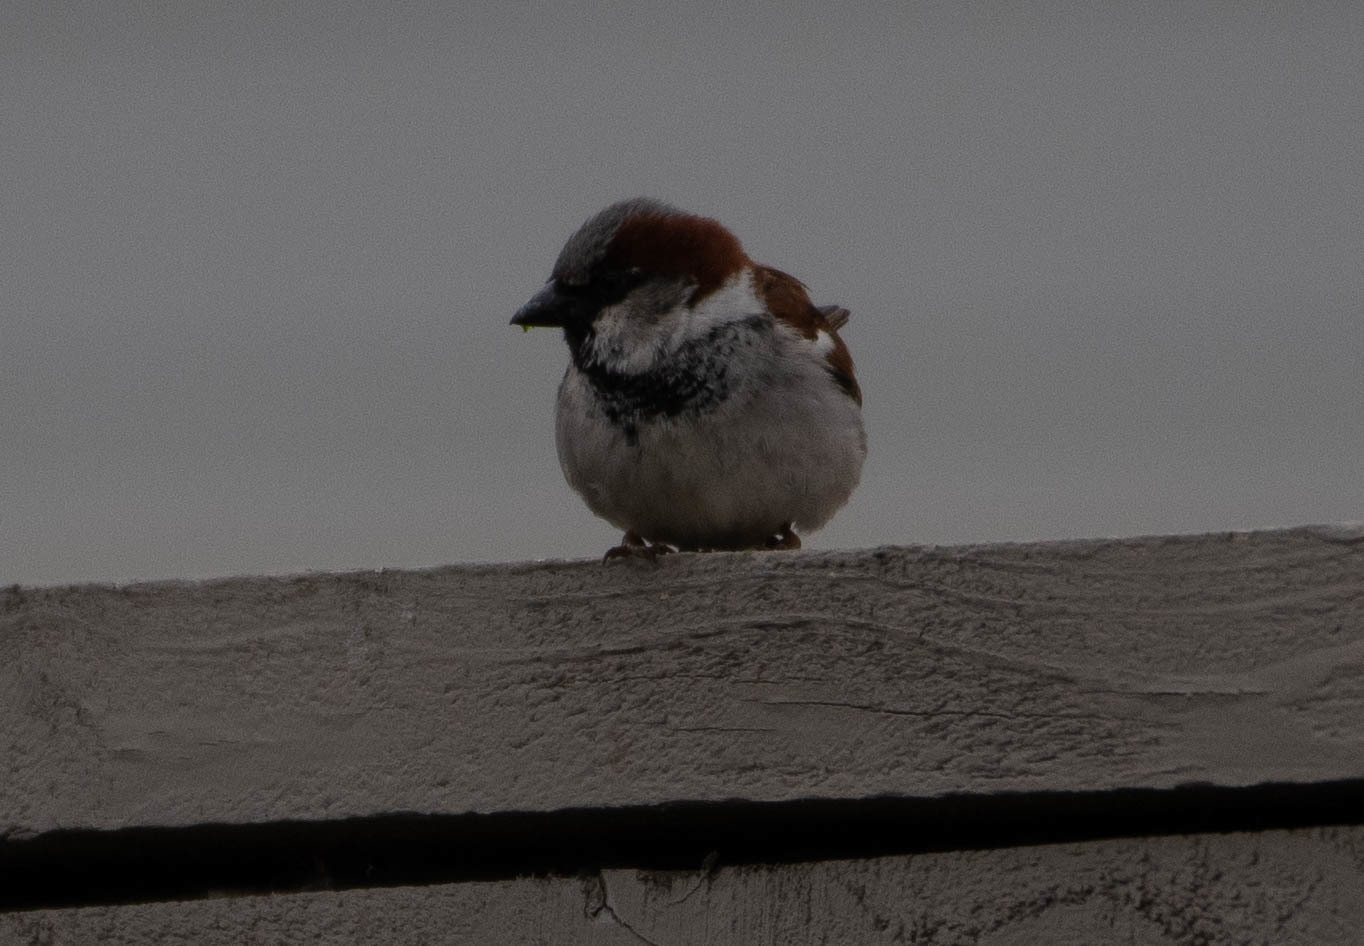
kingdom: Animalia
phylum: Chordata
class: Aves
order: Passeriformes
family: Passeridae
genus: Passer
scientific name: Passer domesticus
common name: House sparrow
